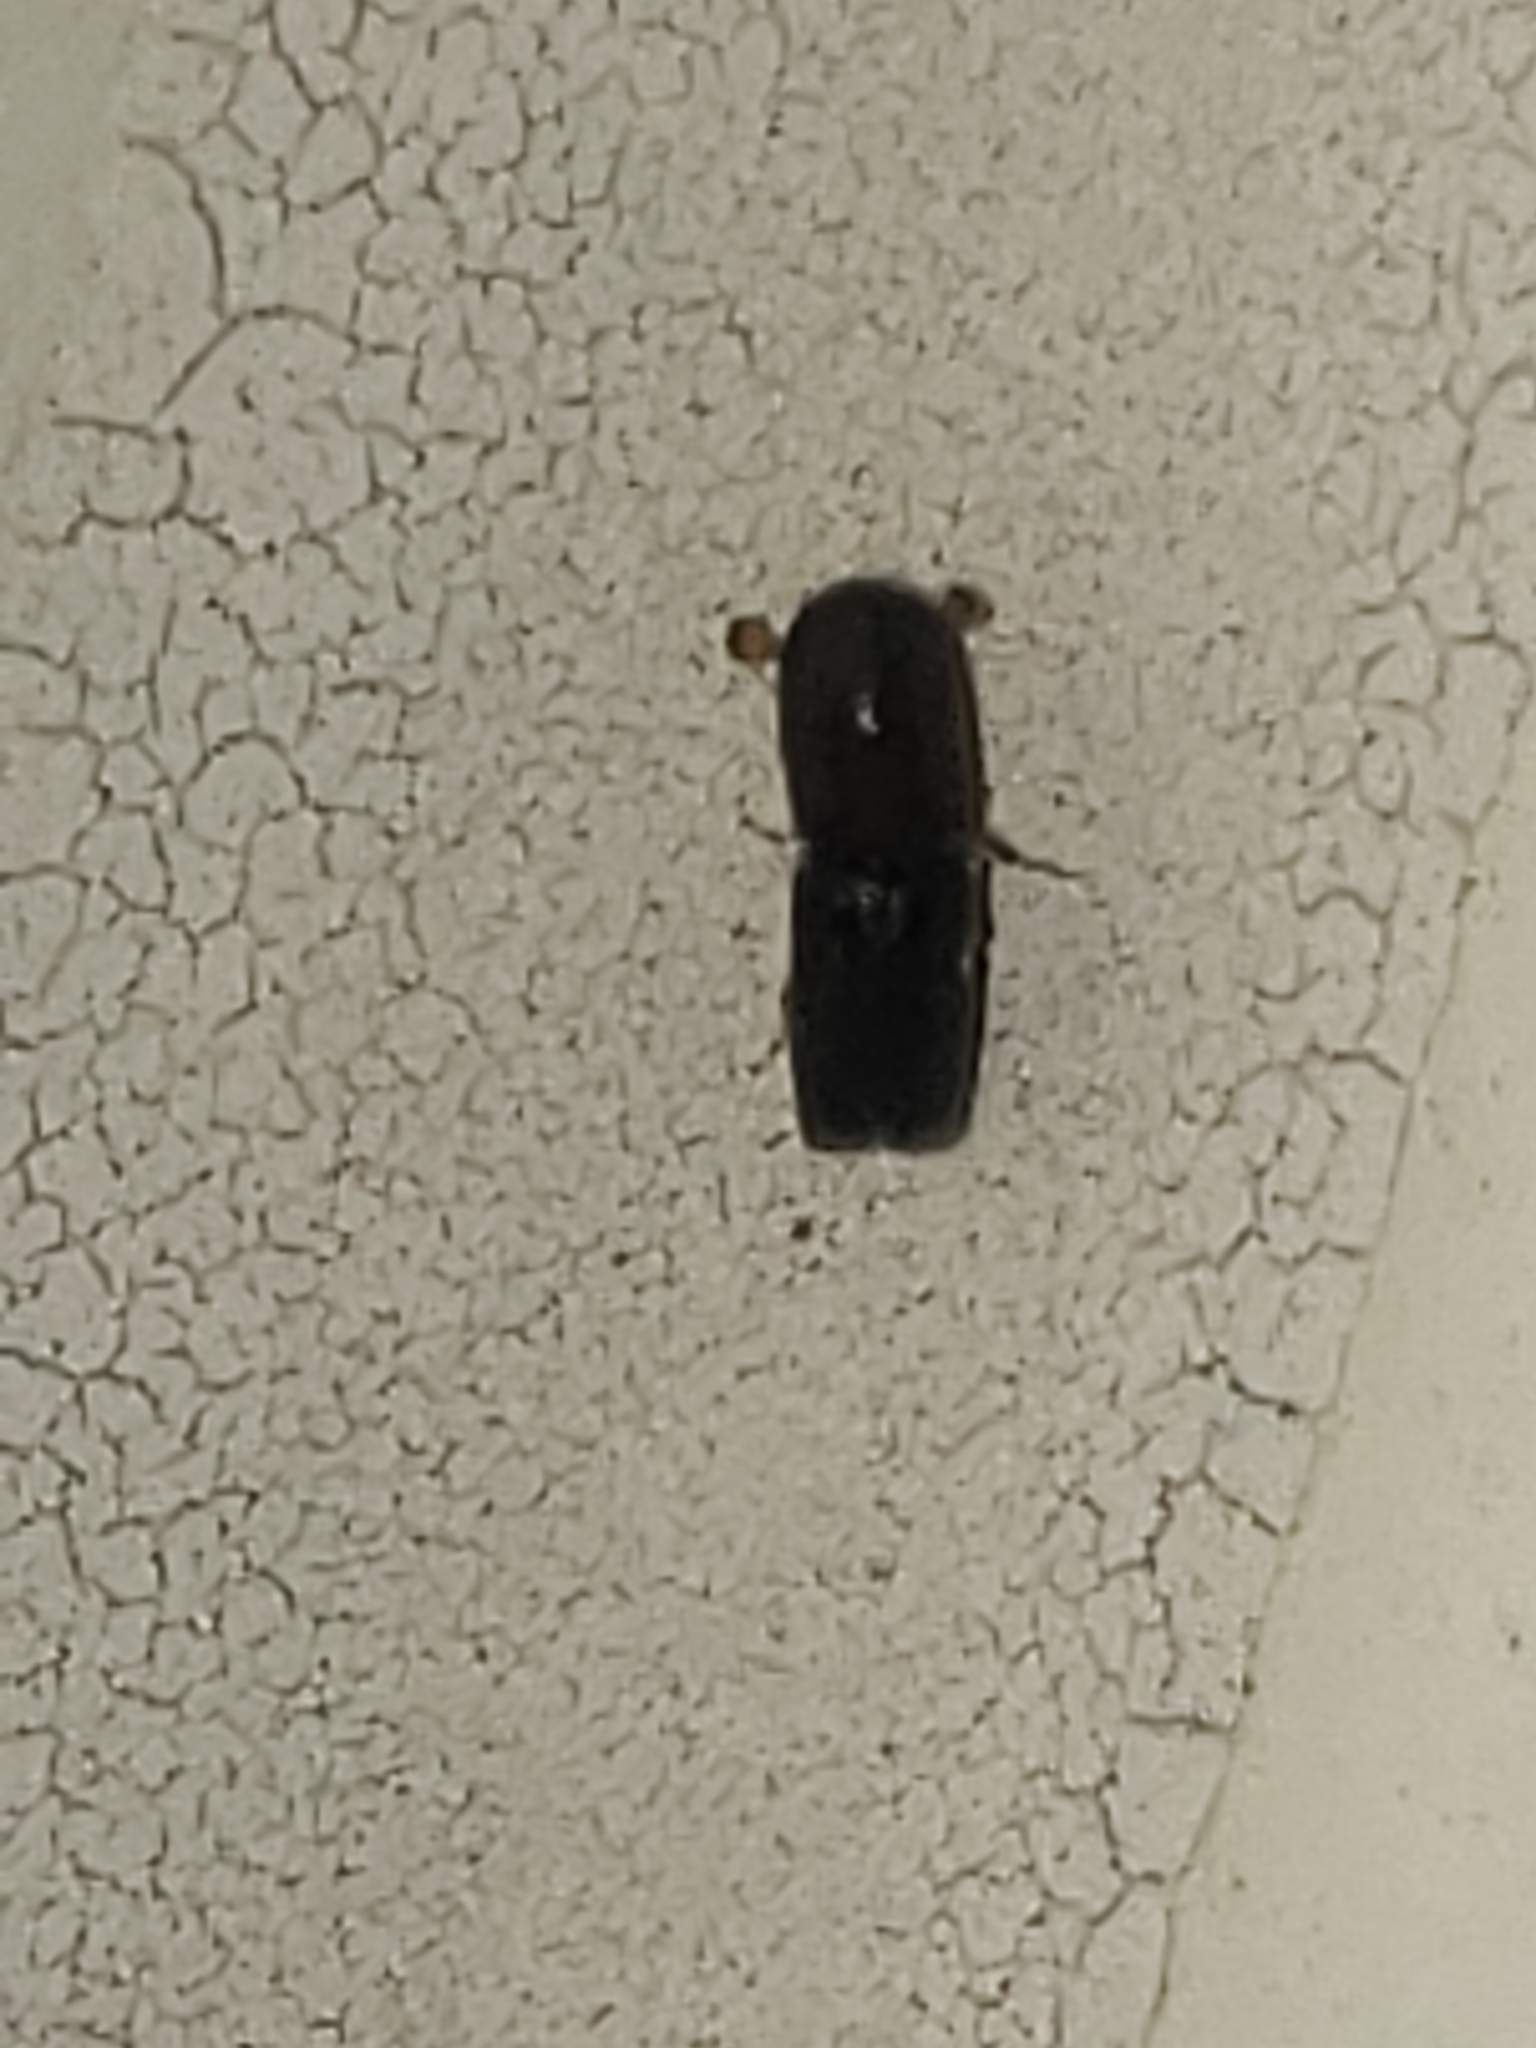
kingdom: Animalia
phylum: Arthropoda
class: Insecta
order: Coleoptera
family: Curculionidae
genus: Monarthrum
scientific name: Monarthrum mali
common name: Bark beetle
